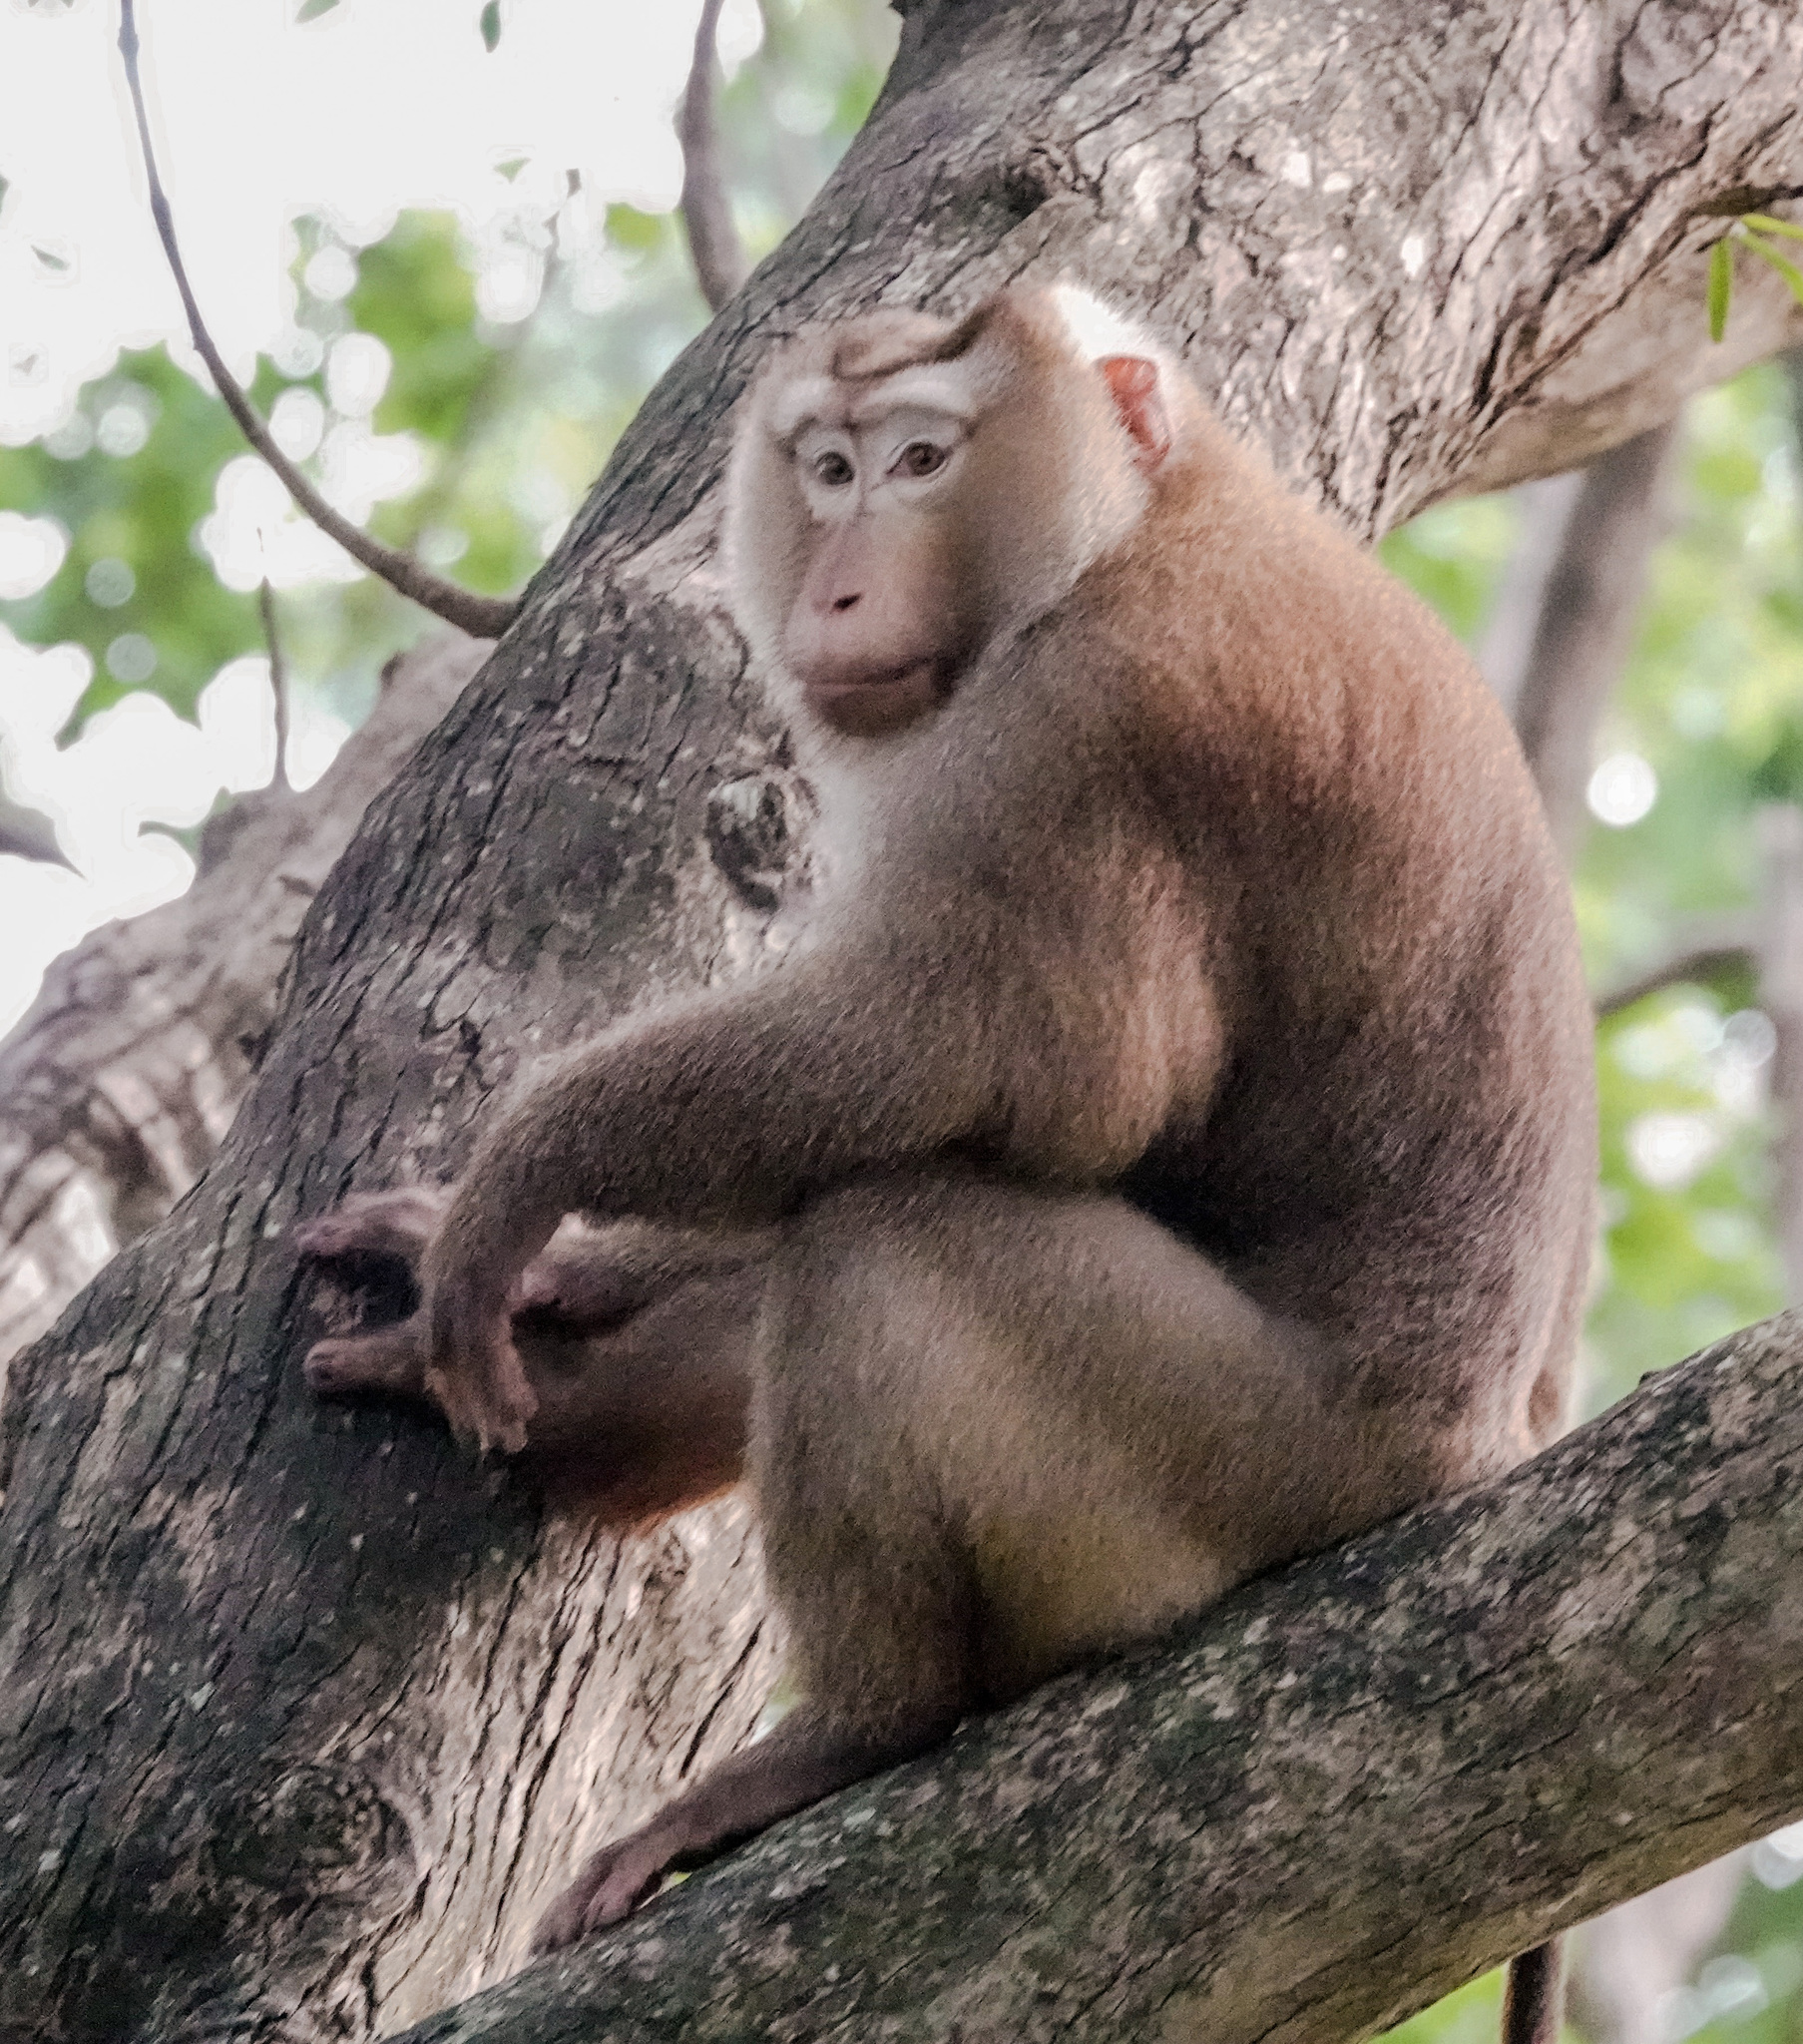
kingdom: Animalia
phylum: Chordata
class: Mammalia
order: Primates
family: Cercopithecidae
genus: Macaca
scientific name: Macaca leonina
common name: Northern pig-tailed macaque
